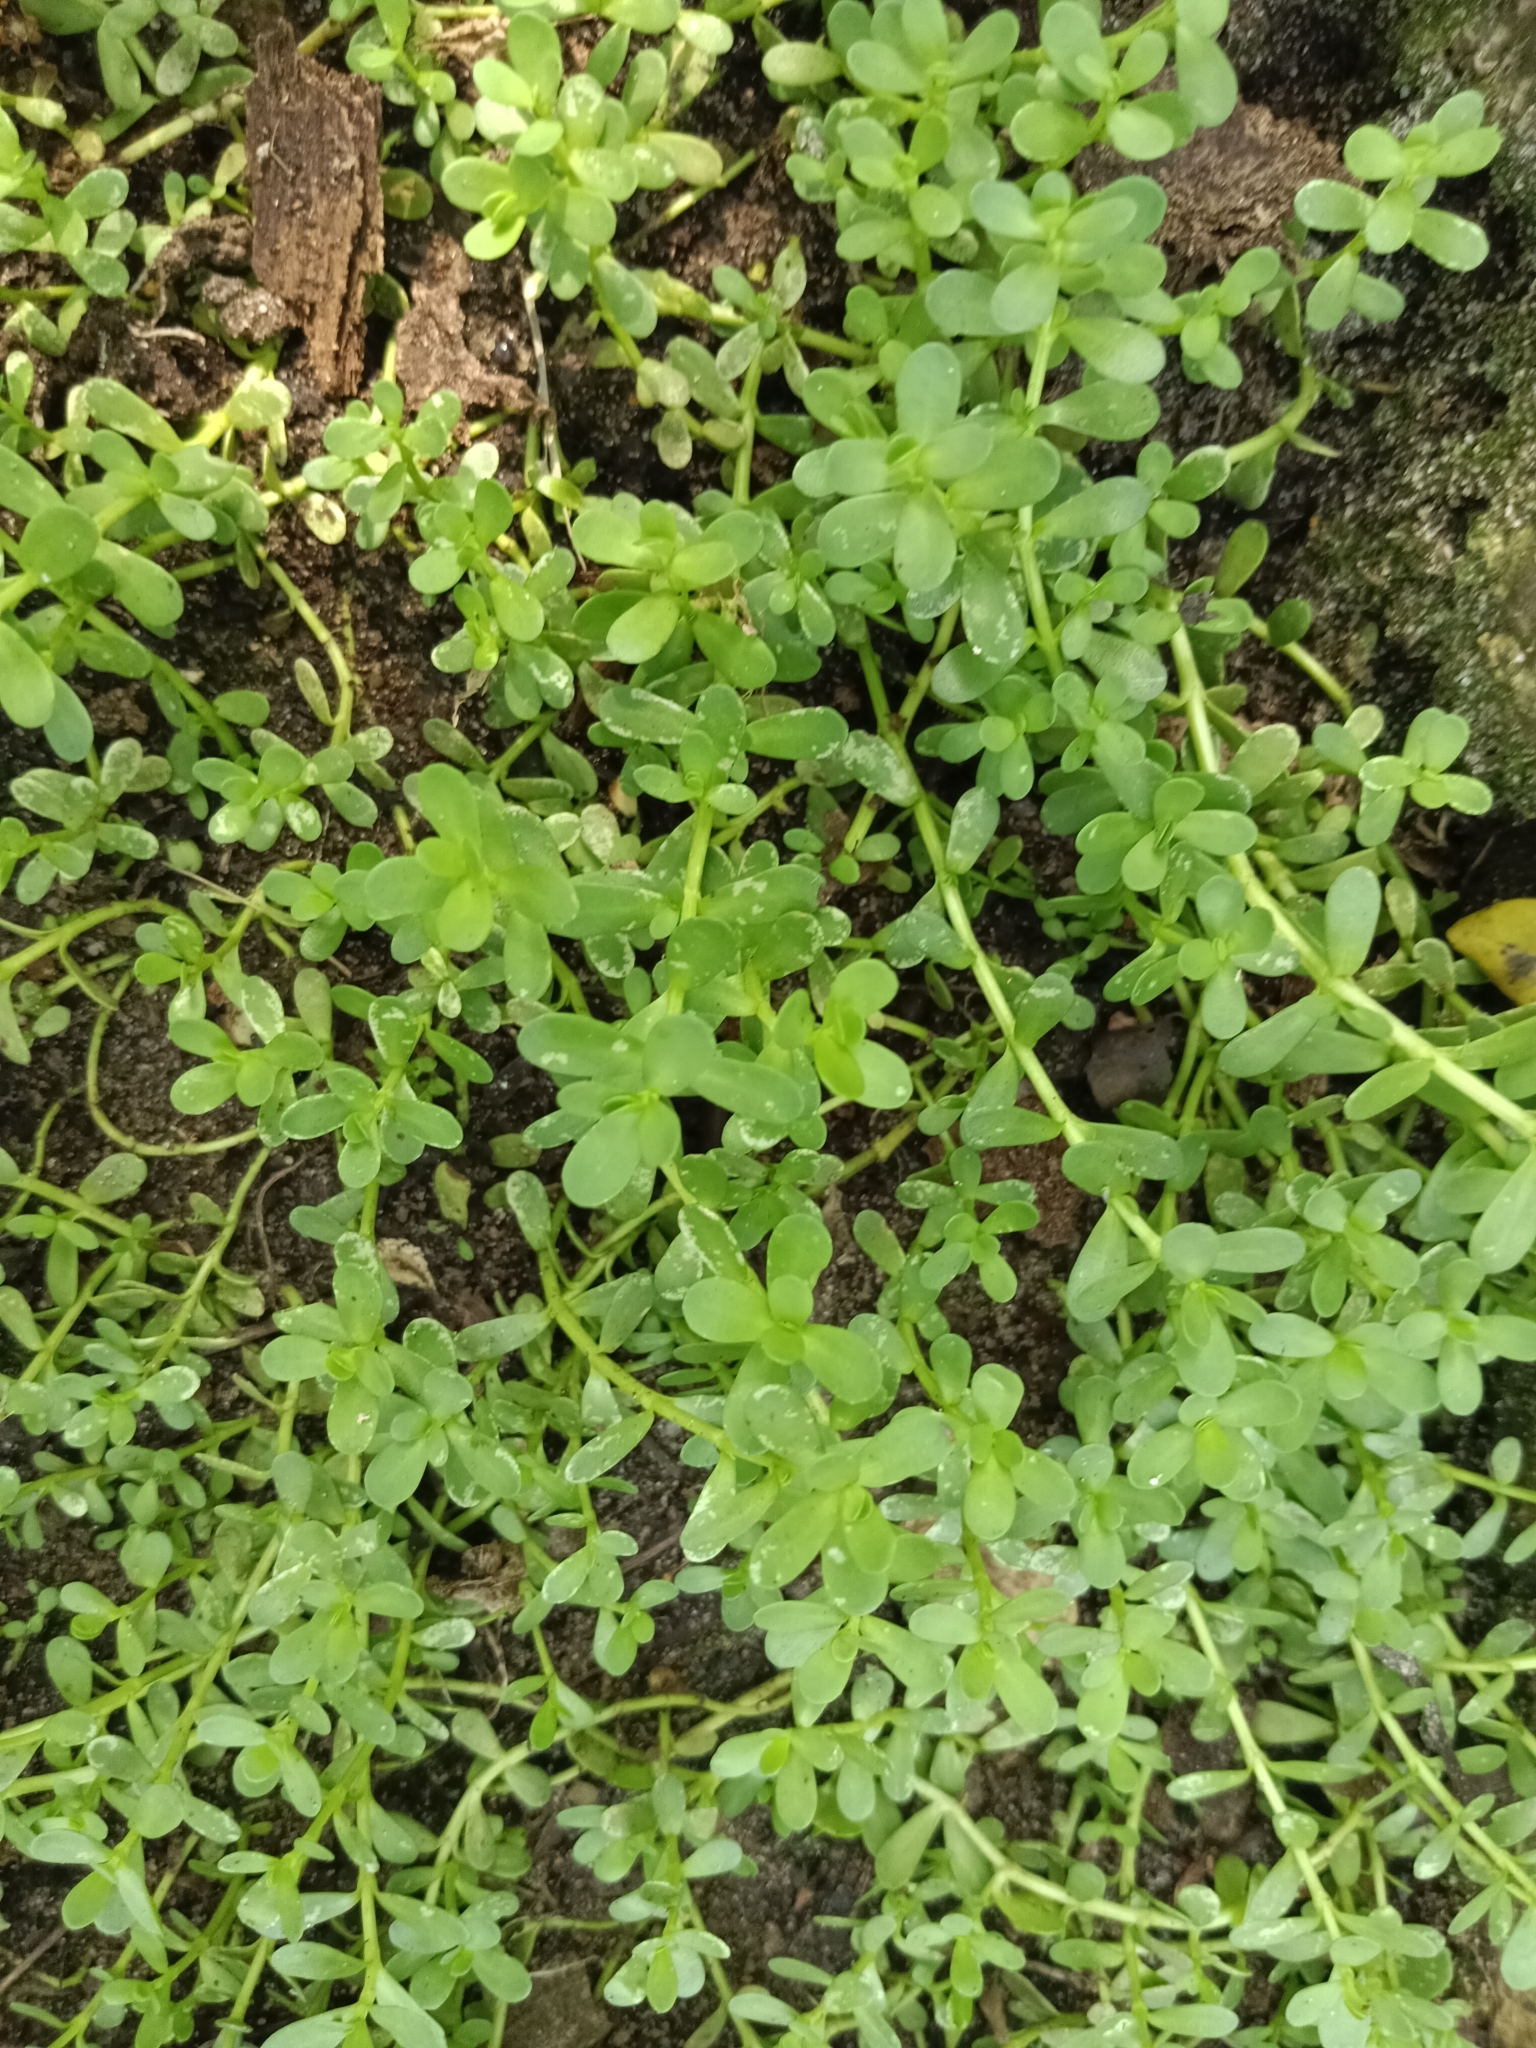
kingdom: Plantae
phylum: Tracheophyta
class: Magnoliopsida
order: Lamiales
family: Plantaginaceae
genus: Bacopa
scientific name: Bacopa monnieri
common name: Indian-pennywort
